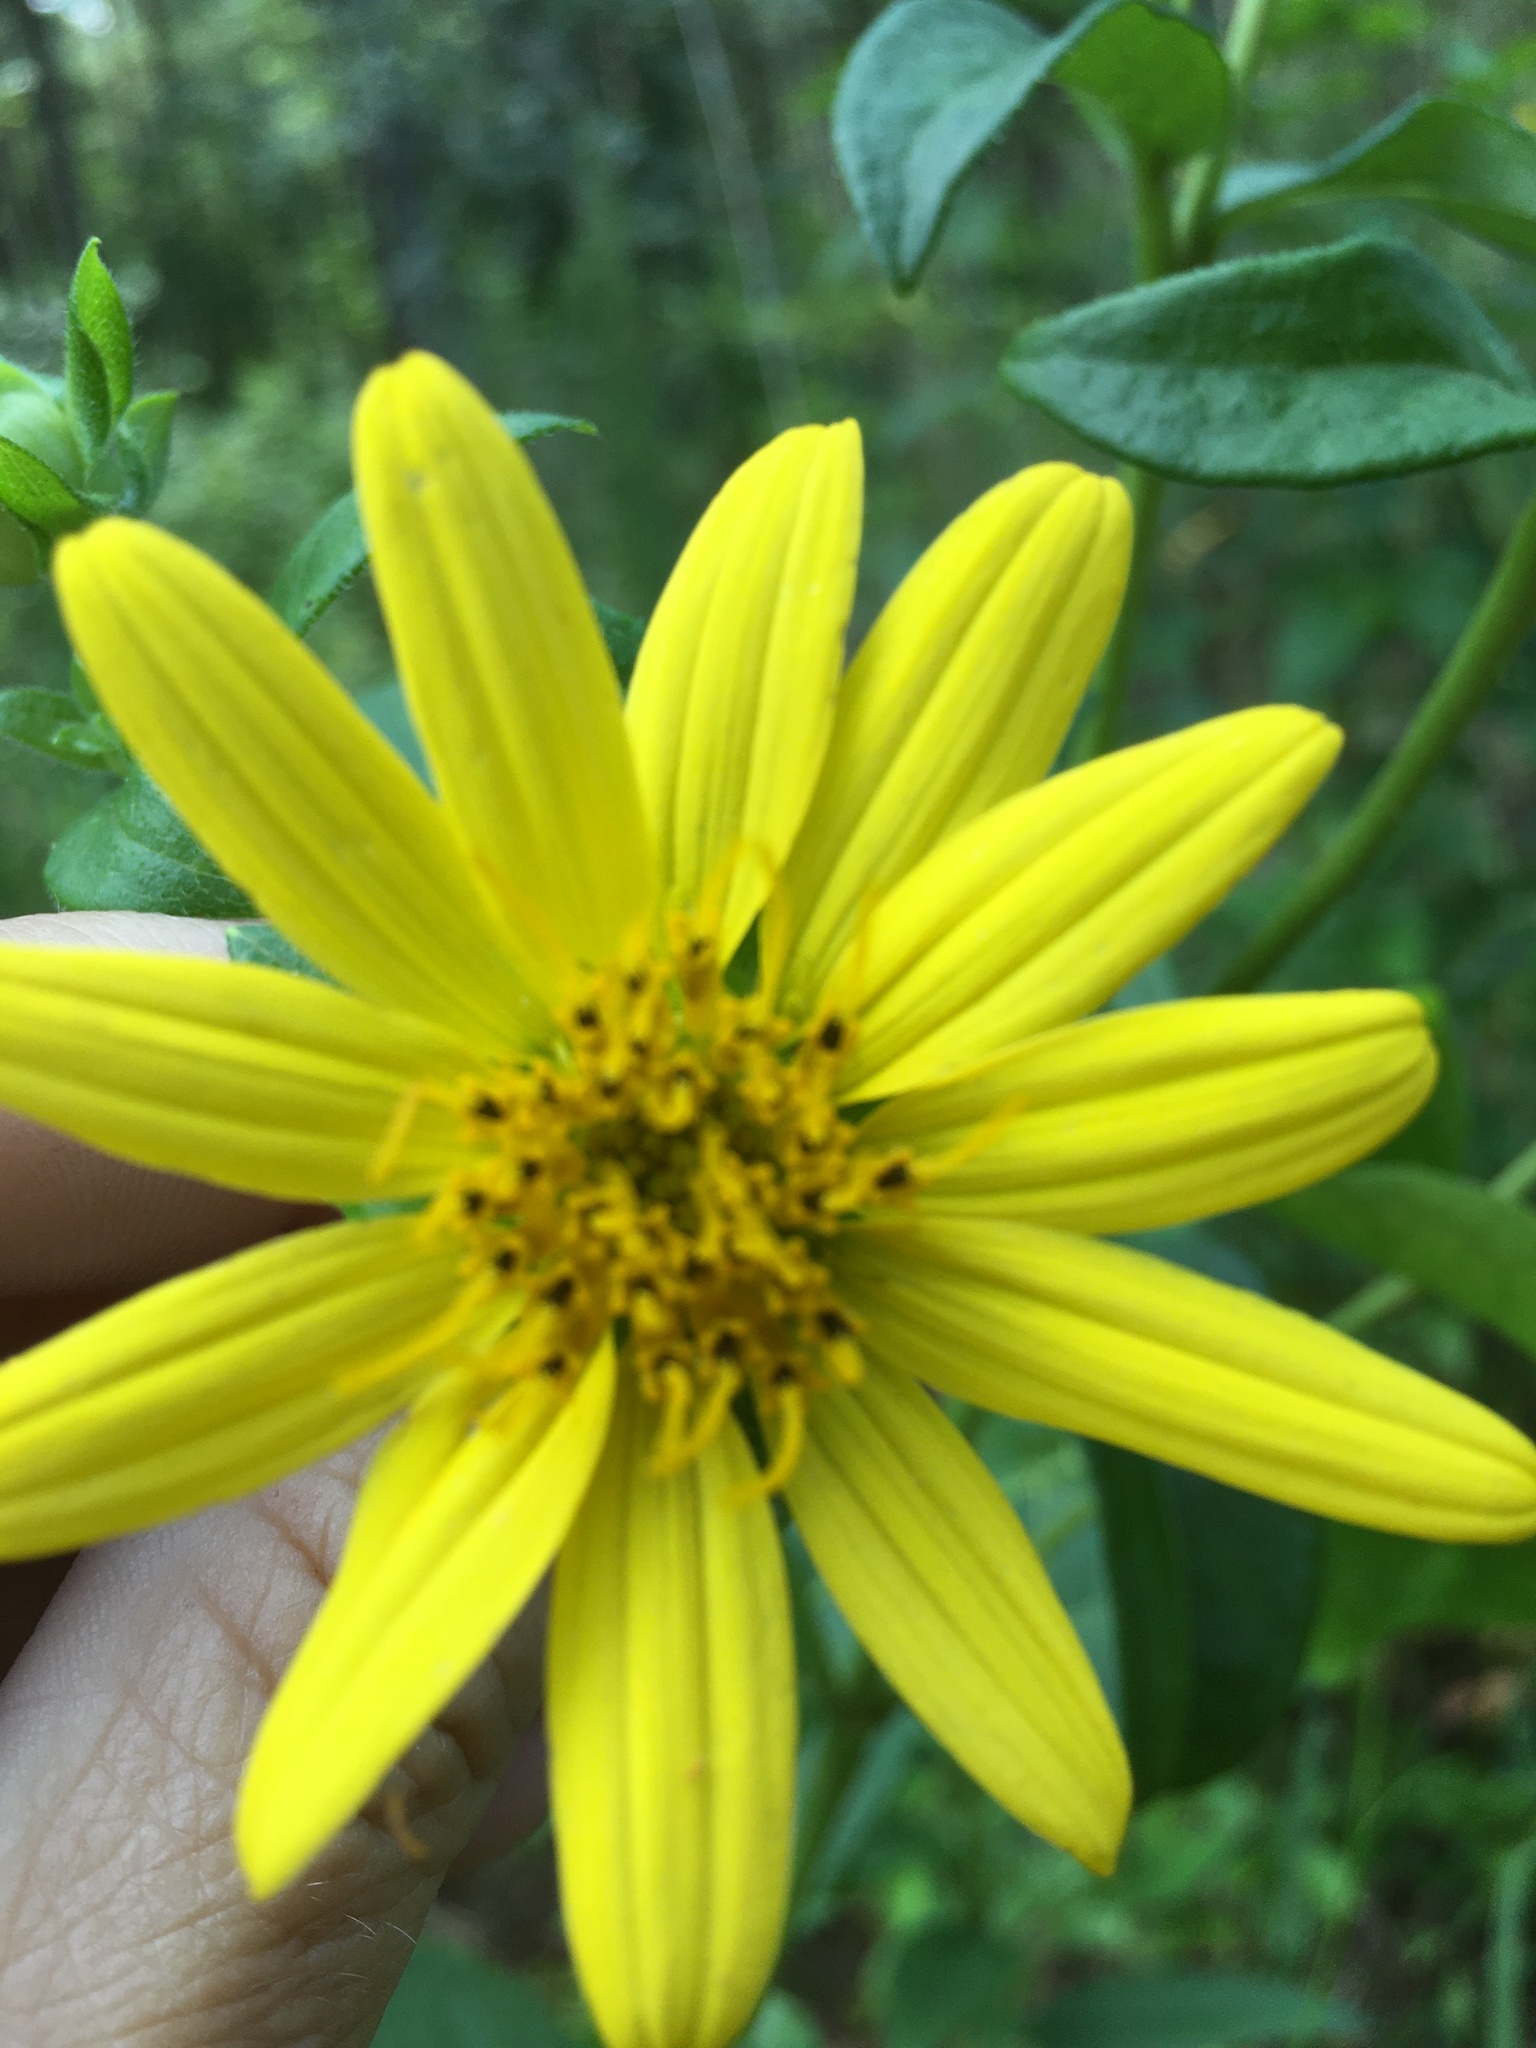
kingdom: Plantae
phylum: Tracheophyta
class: Magnoliopsida
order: Asterales
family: Asteraceae
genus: Silphium
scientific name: Silphium asteriscus
